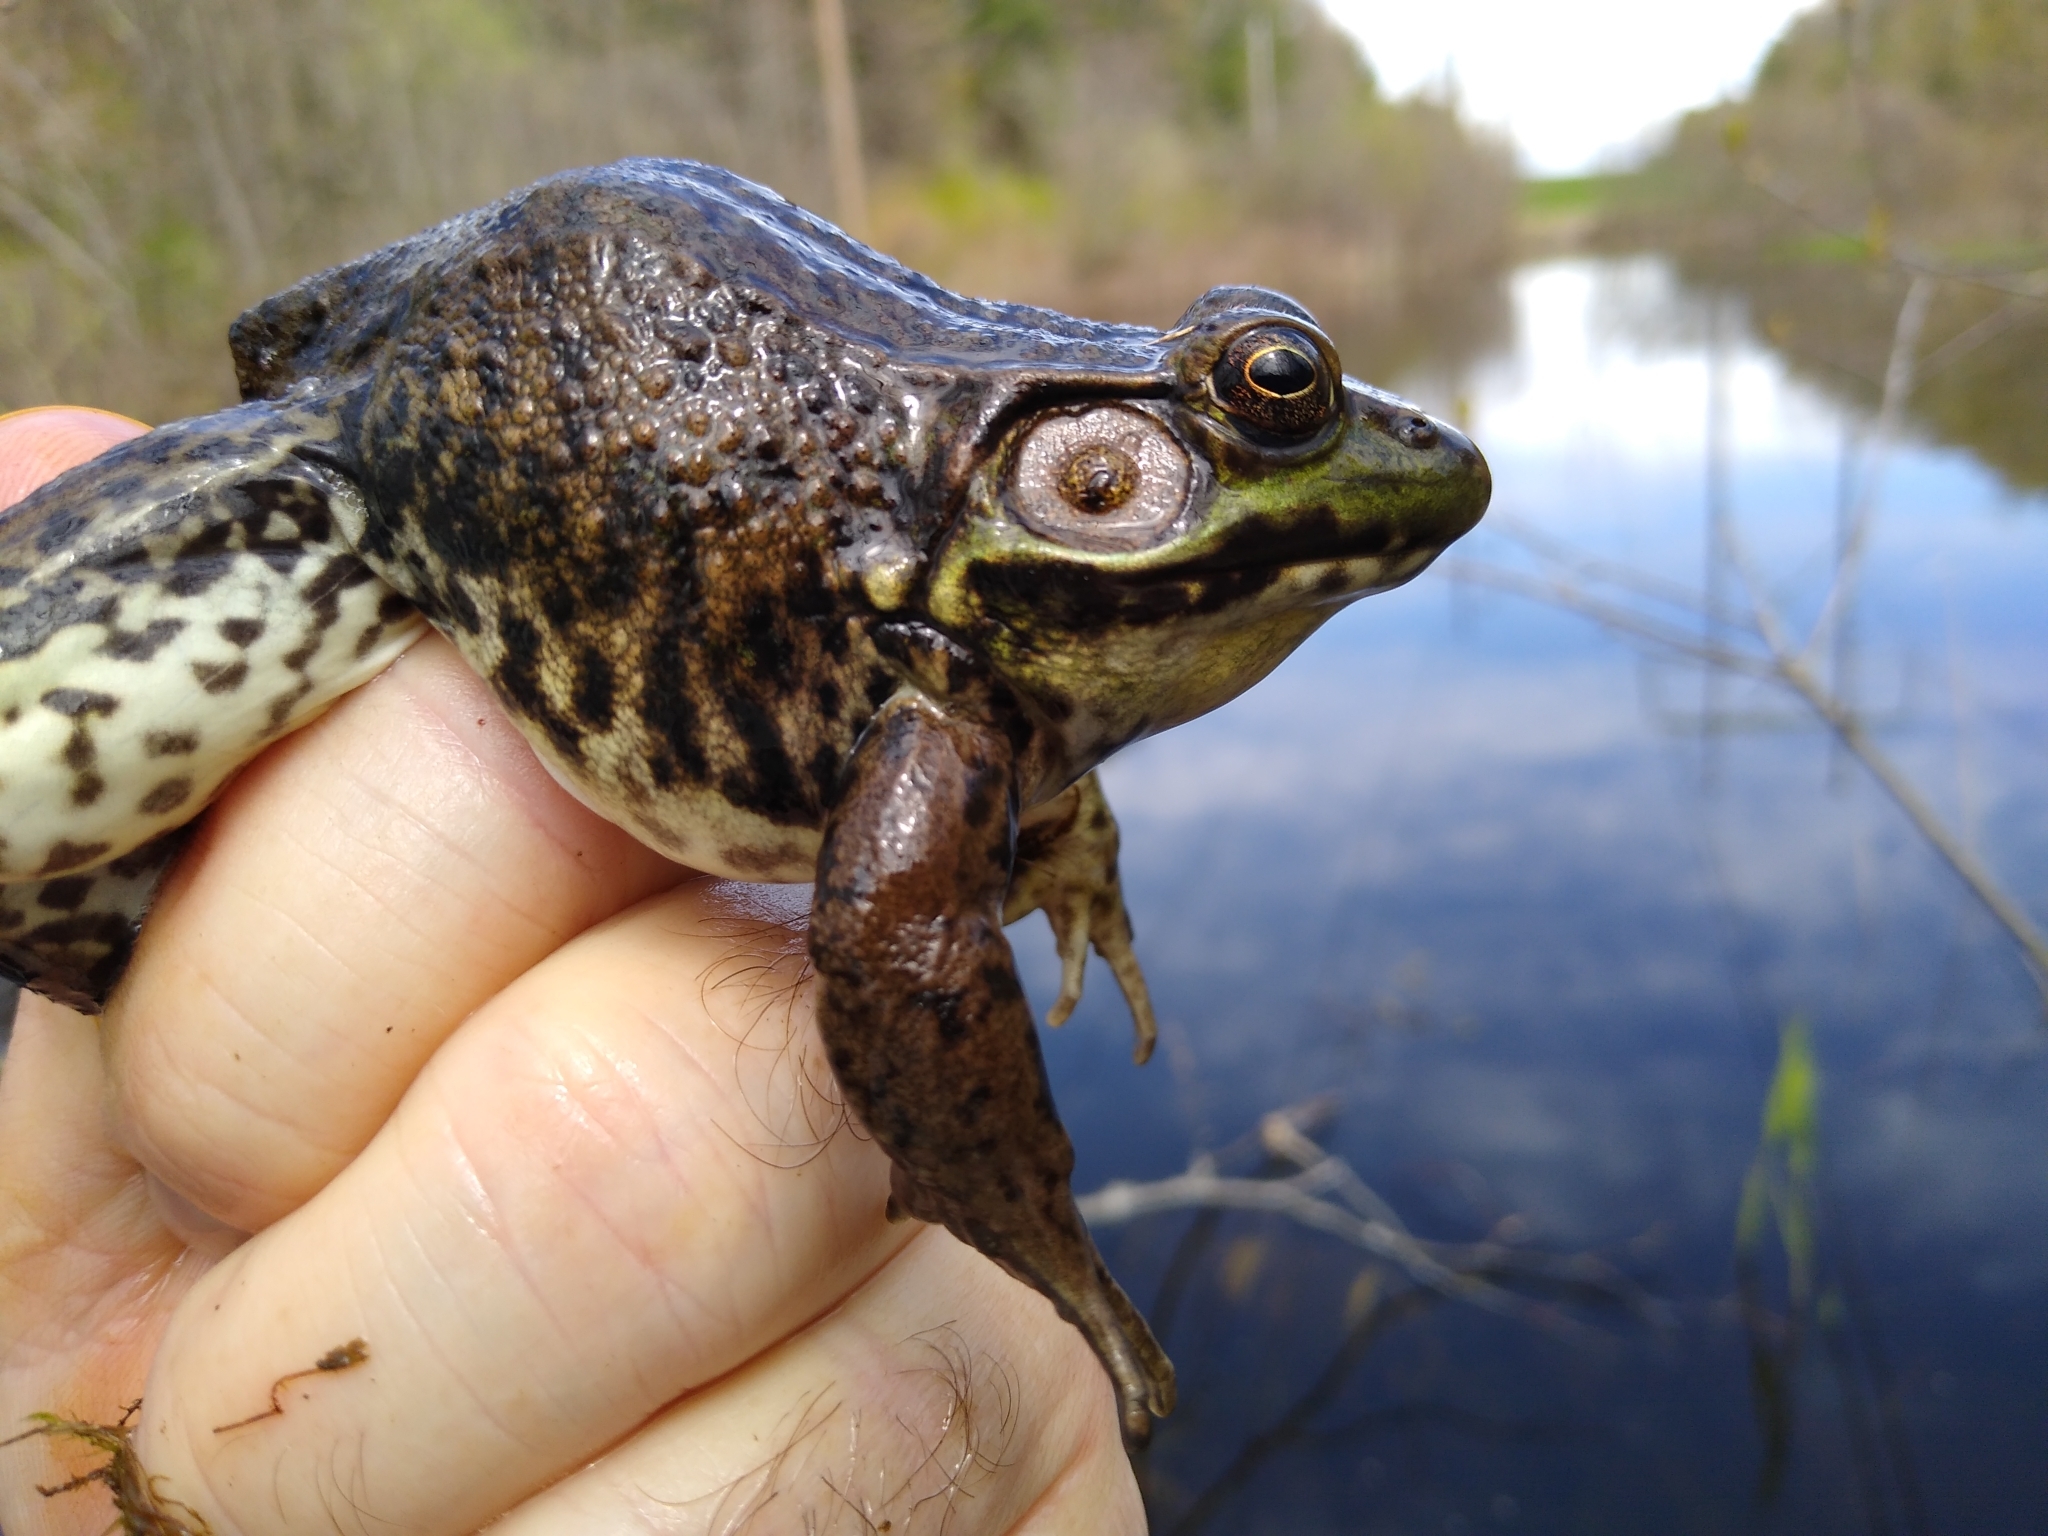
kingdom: Animalia
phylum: Chordata
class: Amphibia
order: Anura
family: Ranidae
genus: Lithobates
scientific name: Lithobates clamitans
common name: Green frog
